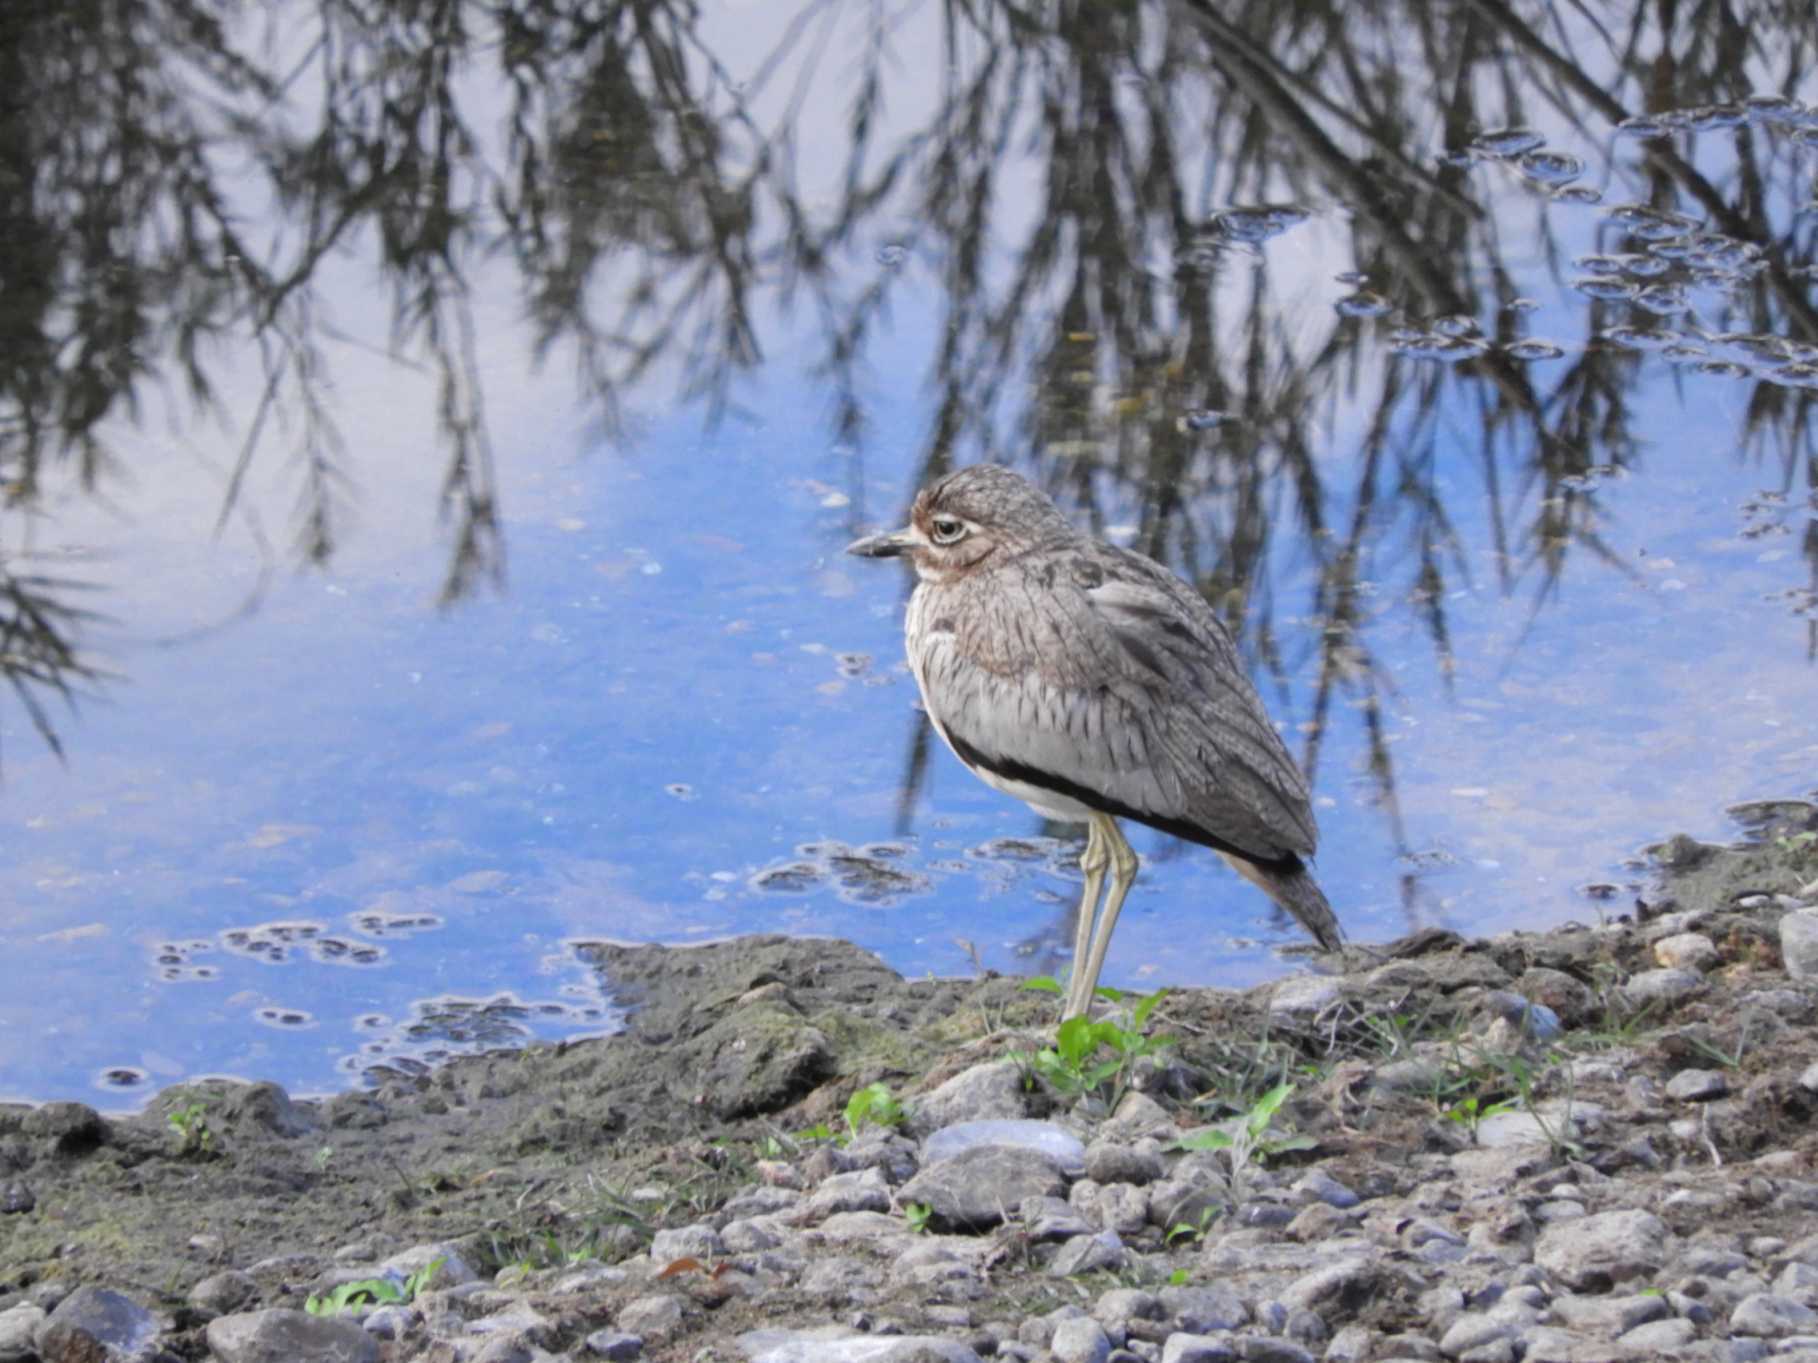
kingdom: Animalia
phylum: Chordata
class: Aves
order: Charadriiformes
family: Burhinidae
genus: Burhinus
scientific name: Burhinus vermiculatus
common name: Water thick-knee
